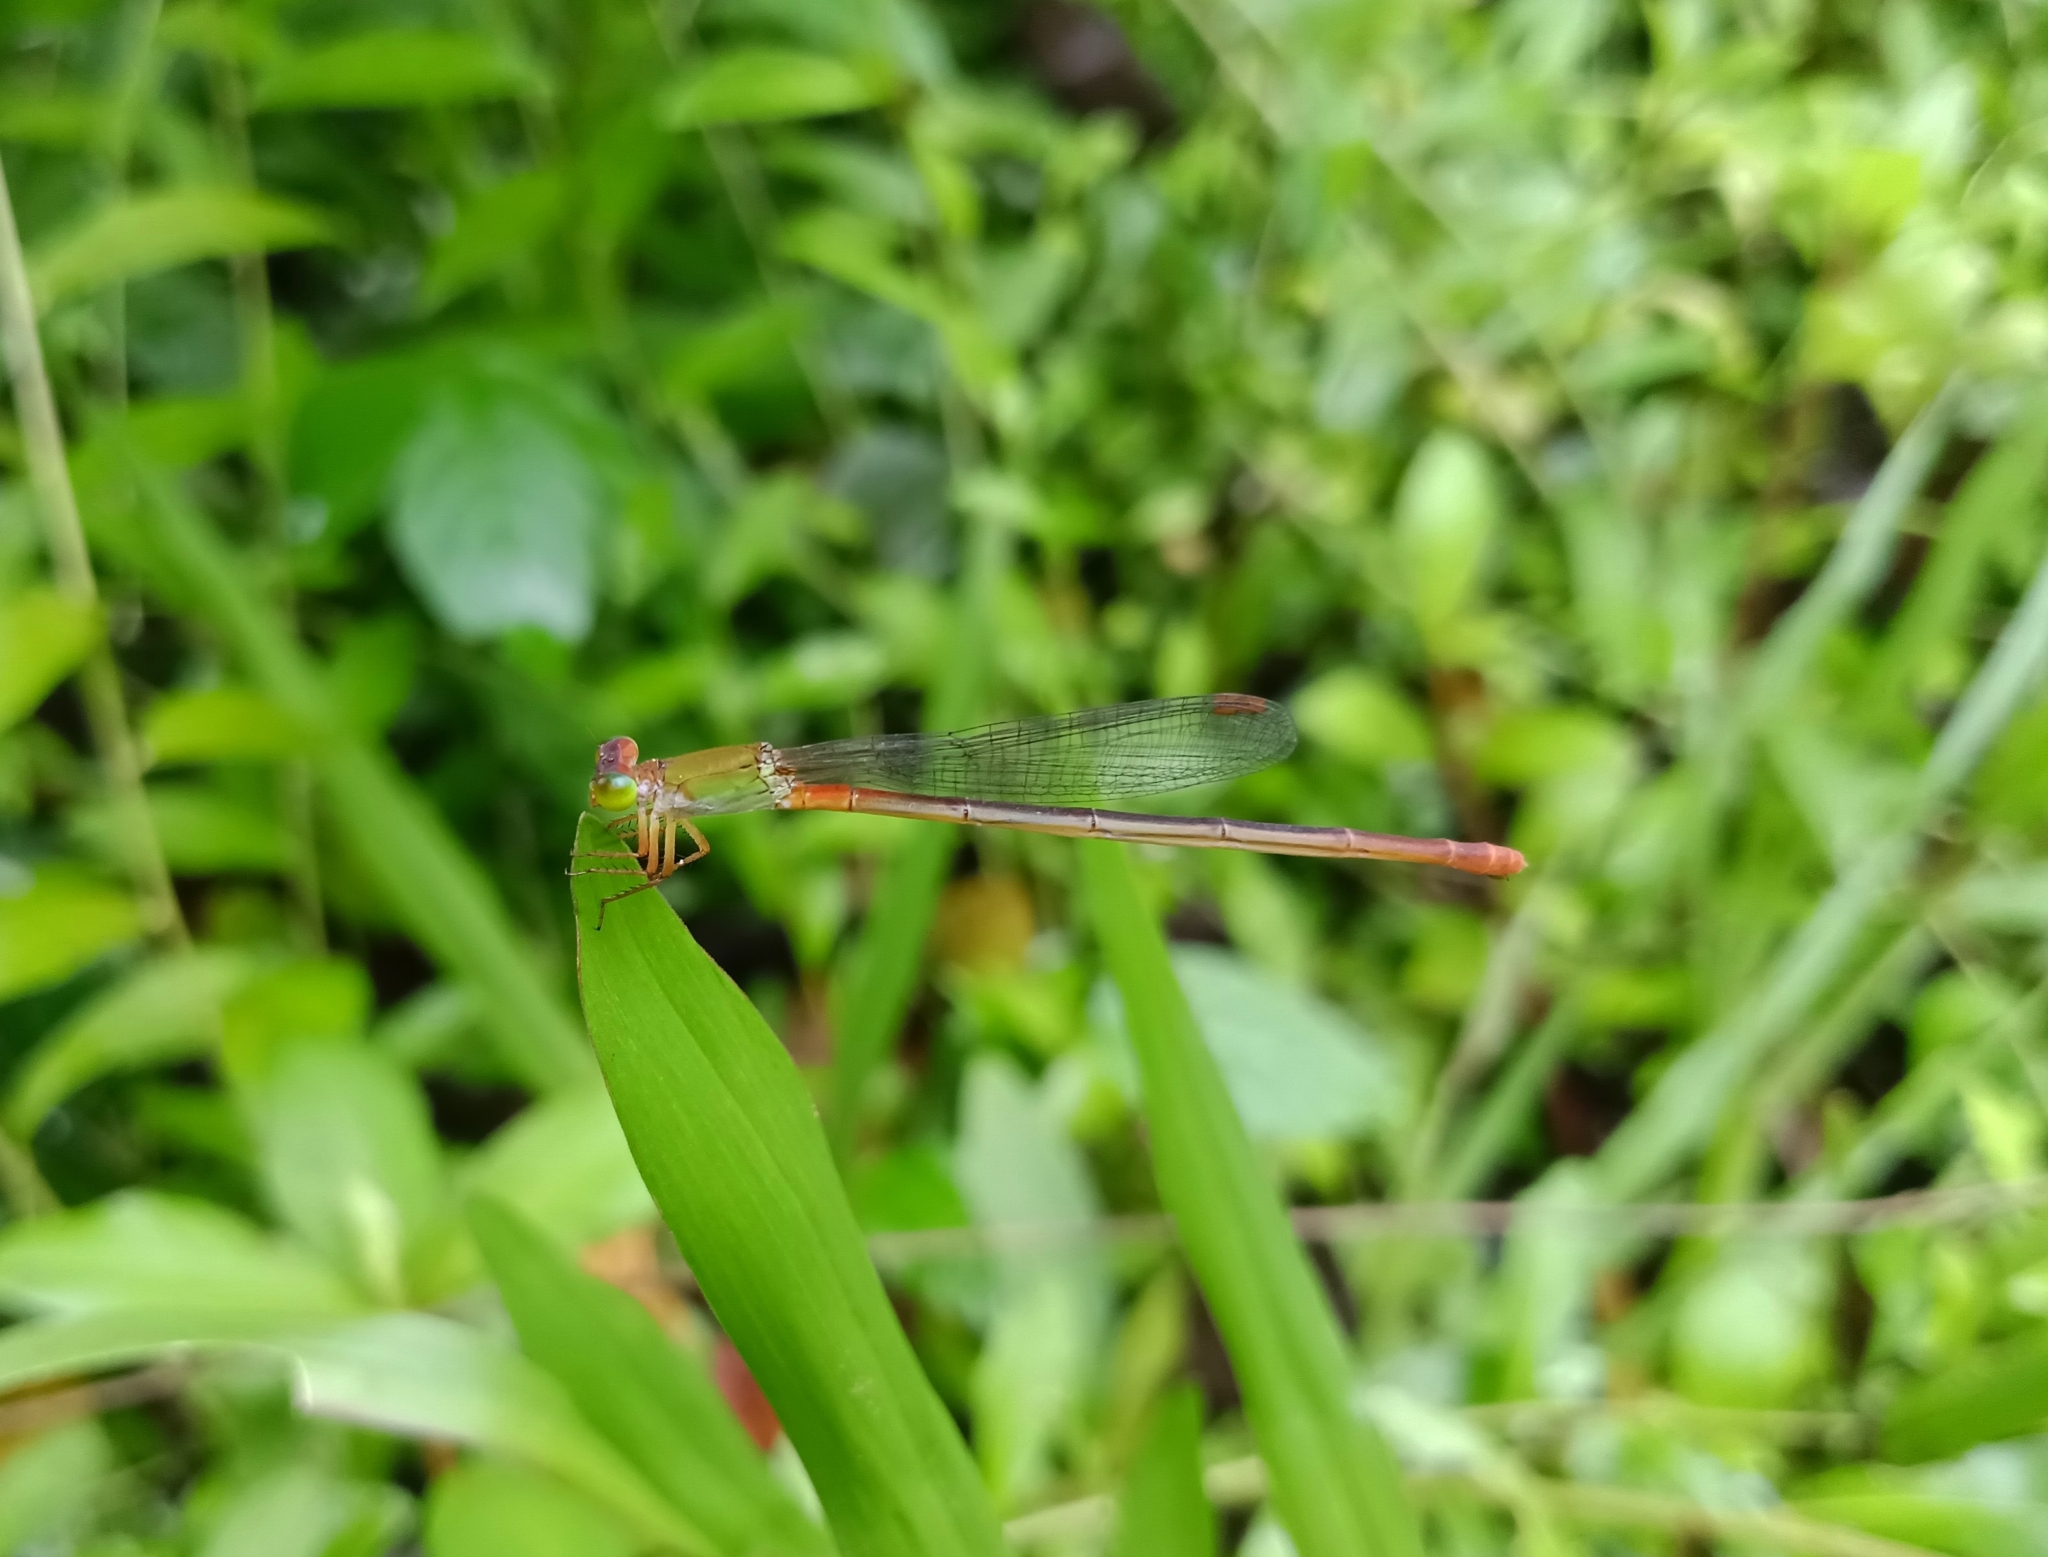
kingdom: Animalia
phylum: Arthropoda
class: Insecta
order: Odonata
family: Coenagrionidae
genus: Ceriagrion
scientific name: Ceriagrion cerinorubellum
